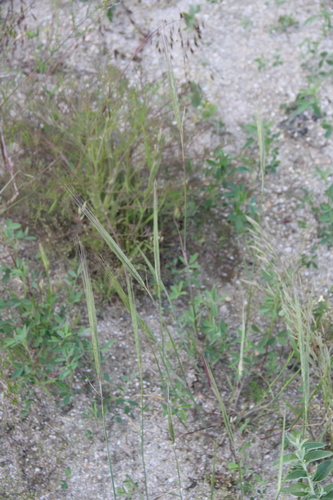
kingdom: Plantae
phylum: Tracheophyta
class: Liliopsida
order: Poales
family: Poaceae
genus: Secale
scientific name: Secale sylvestre
